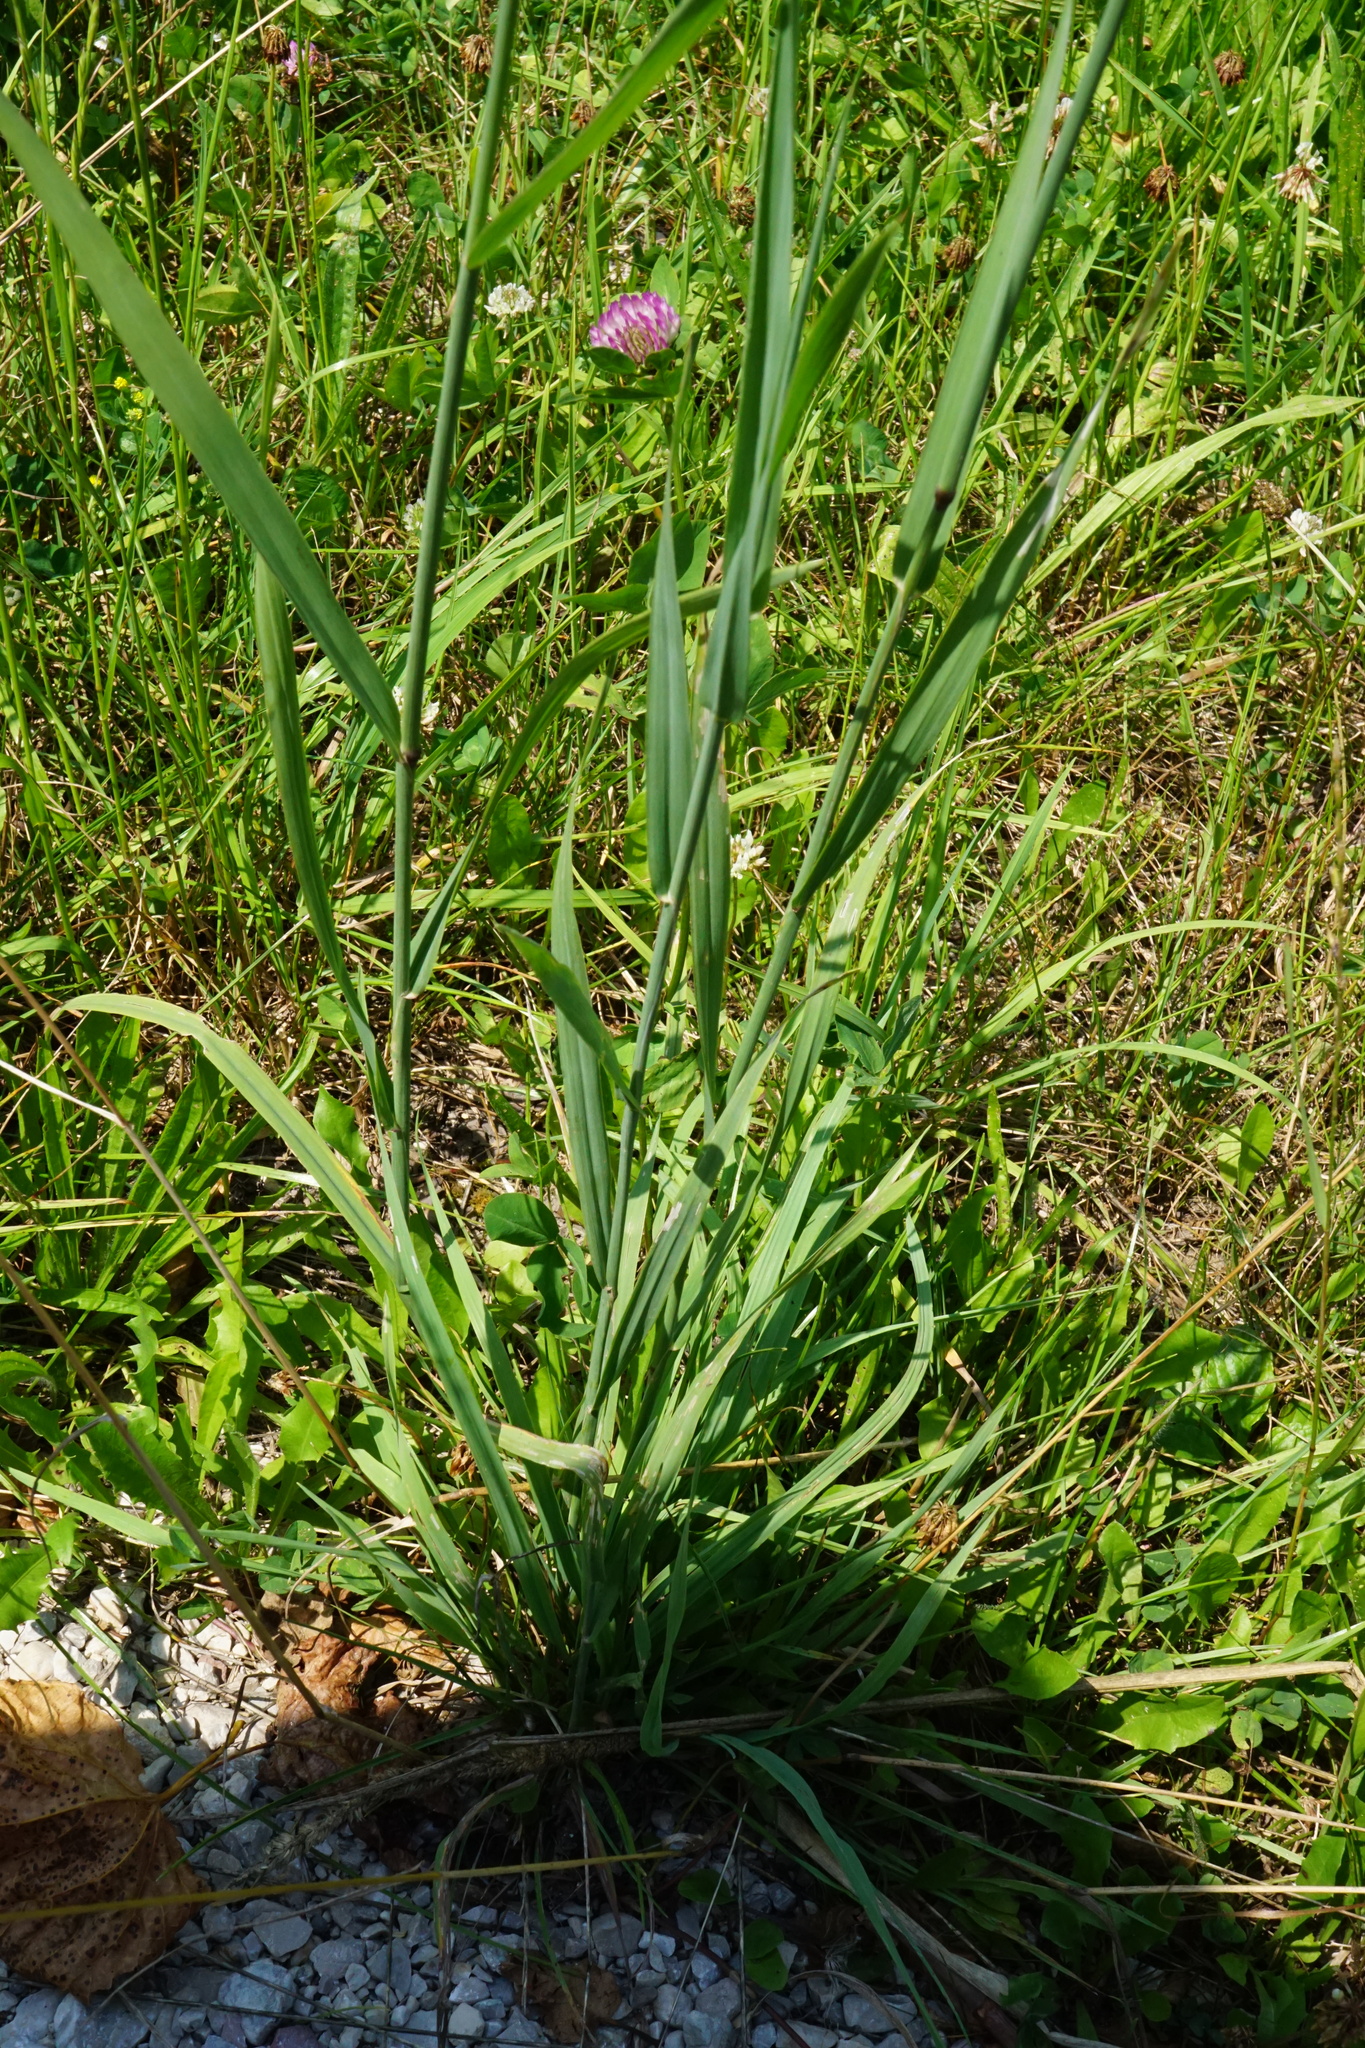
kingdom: Plantae
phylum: Tracheophyta
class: Liliopsida
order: Poales
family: Poaceae
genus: Phleum
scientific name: Phleum pratense
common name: Timothy grass
